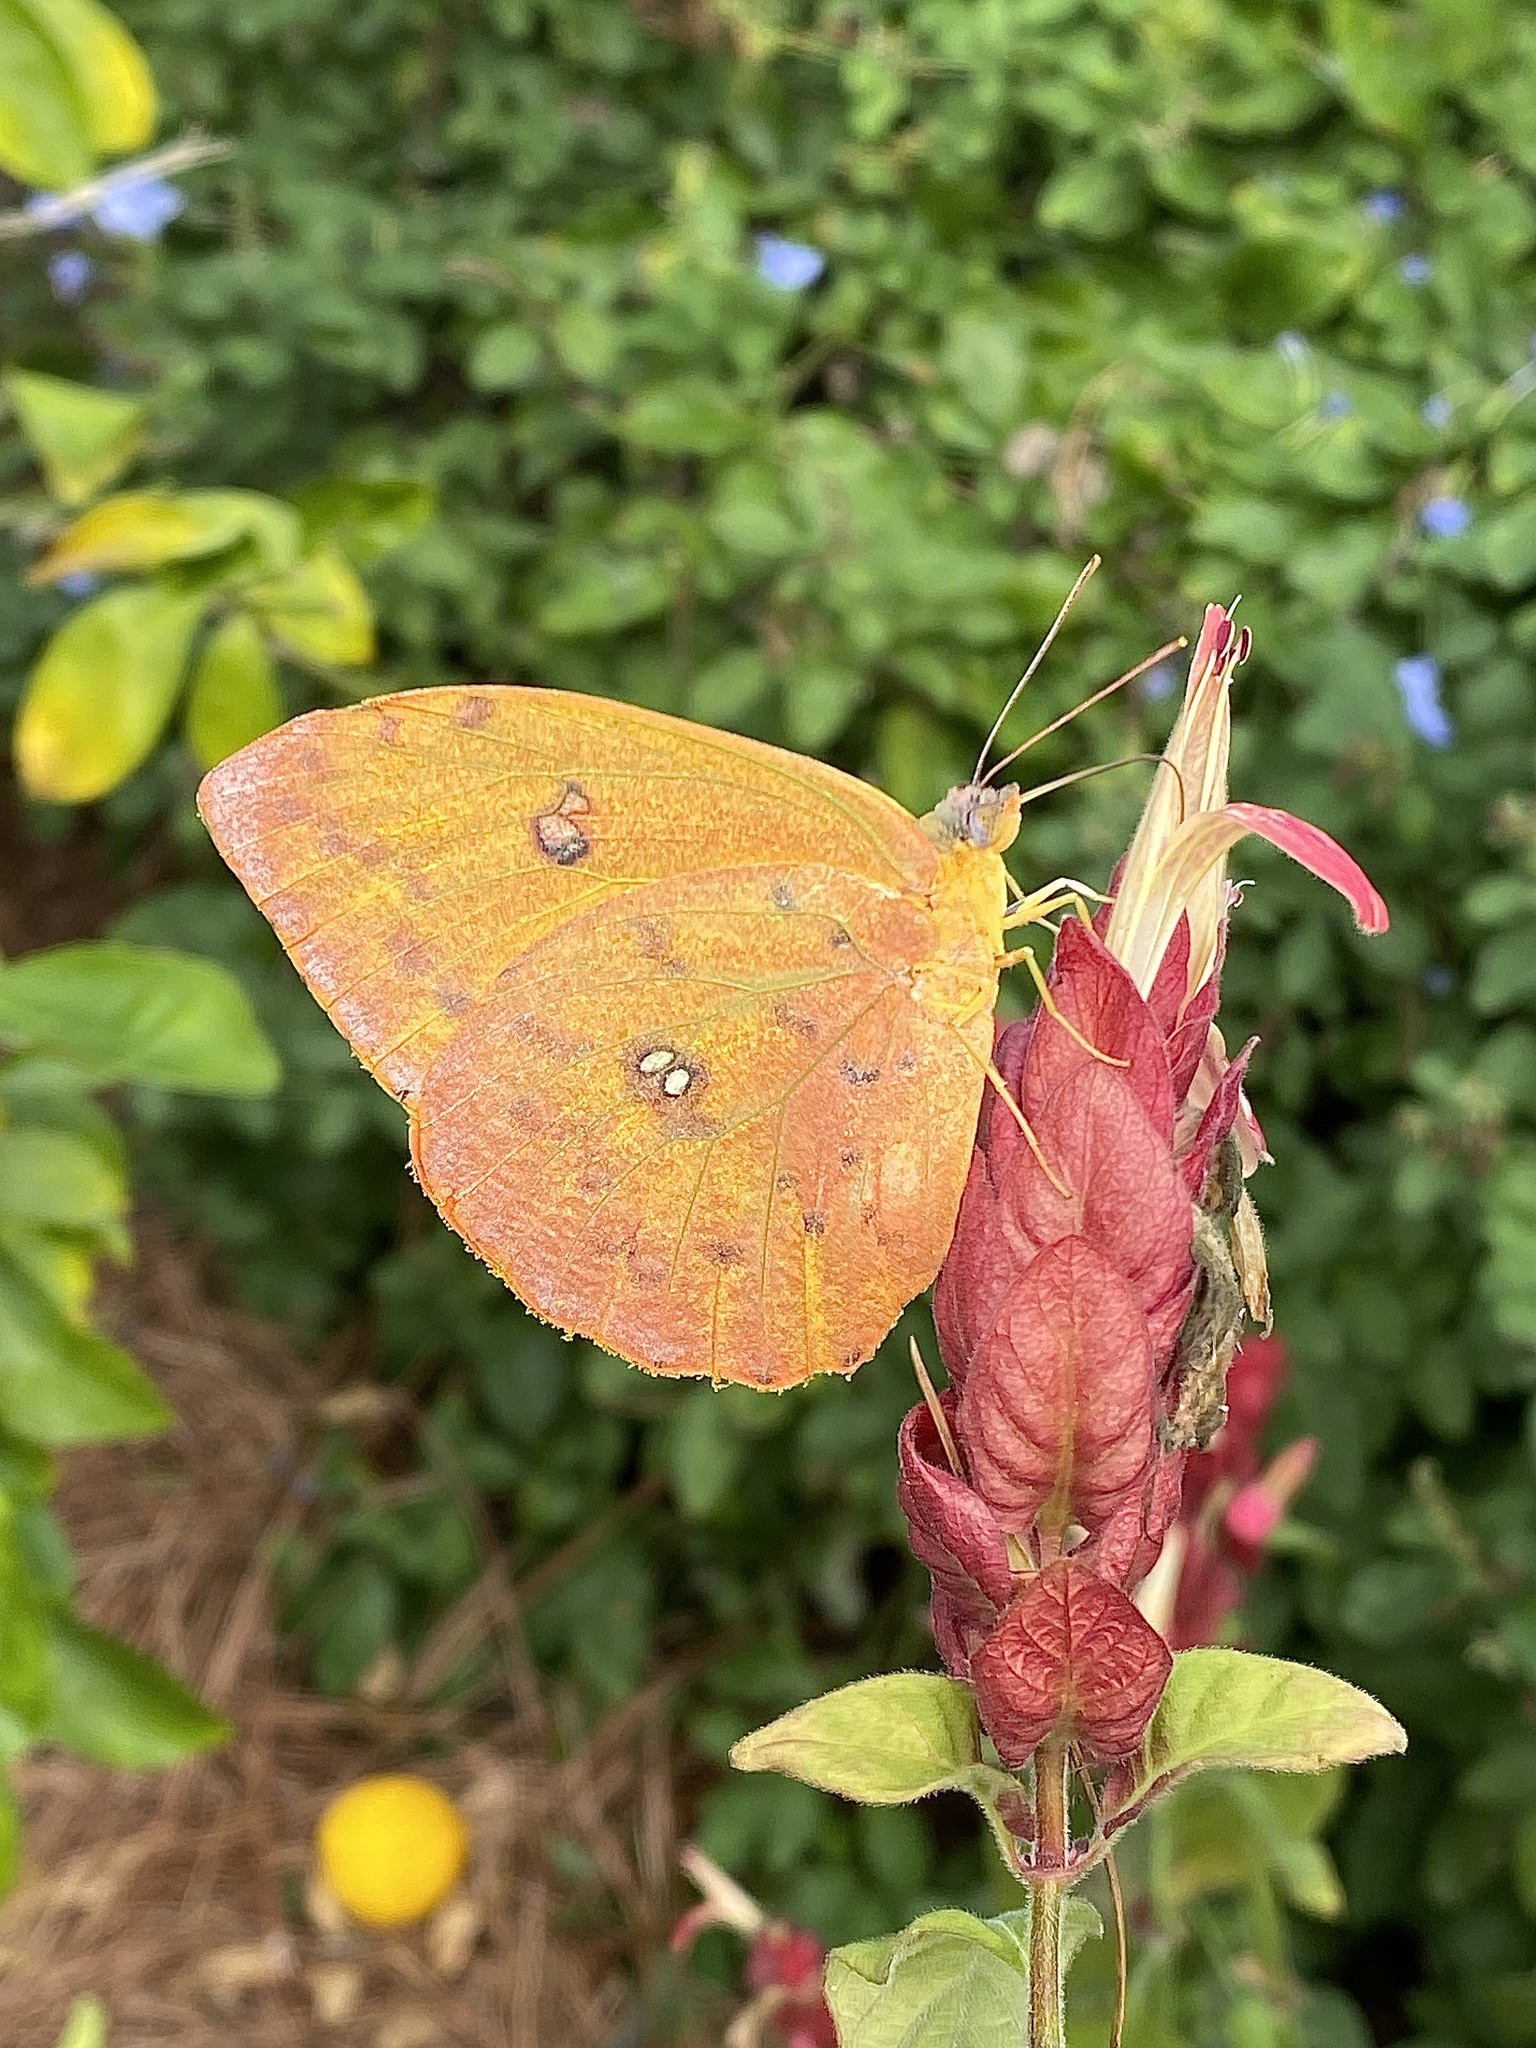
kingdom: Animalia
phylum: Arthropoda
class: Insecta
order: Lepidoptera
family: Pieridae
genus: Phoebis
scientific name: Phoebis philea
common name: Orange-barred giant sulphur
